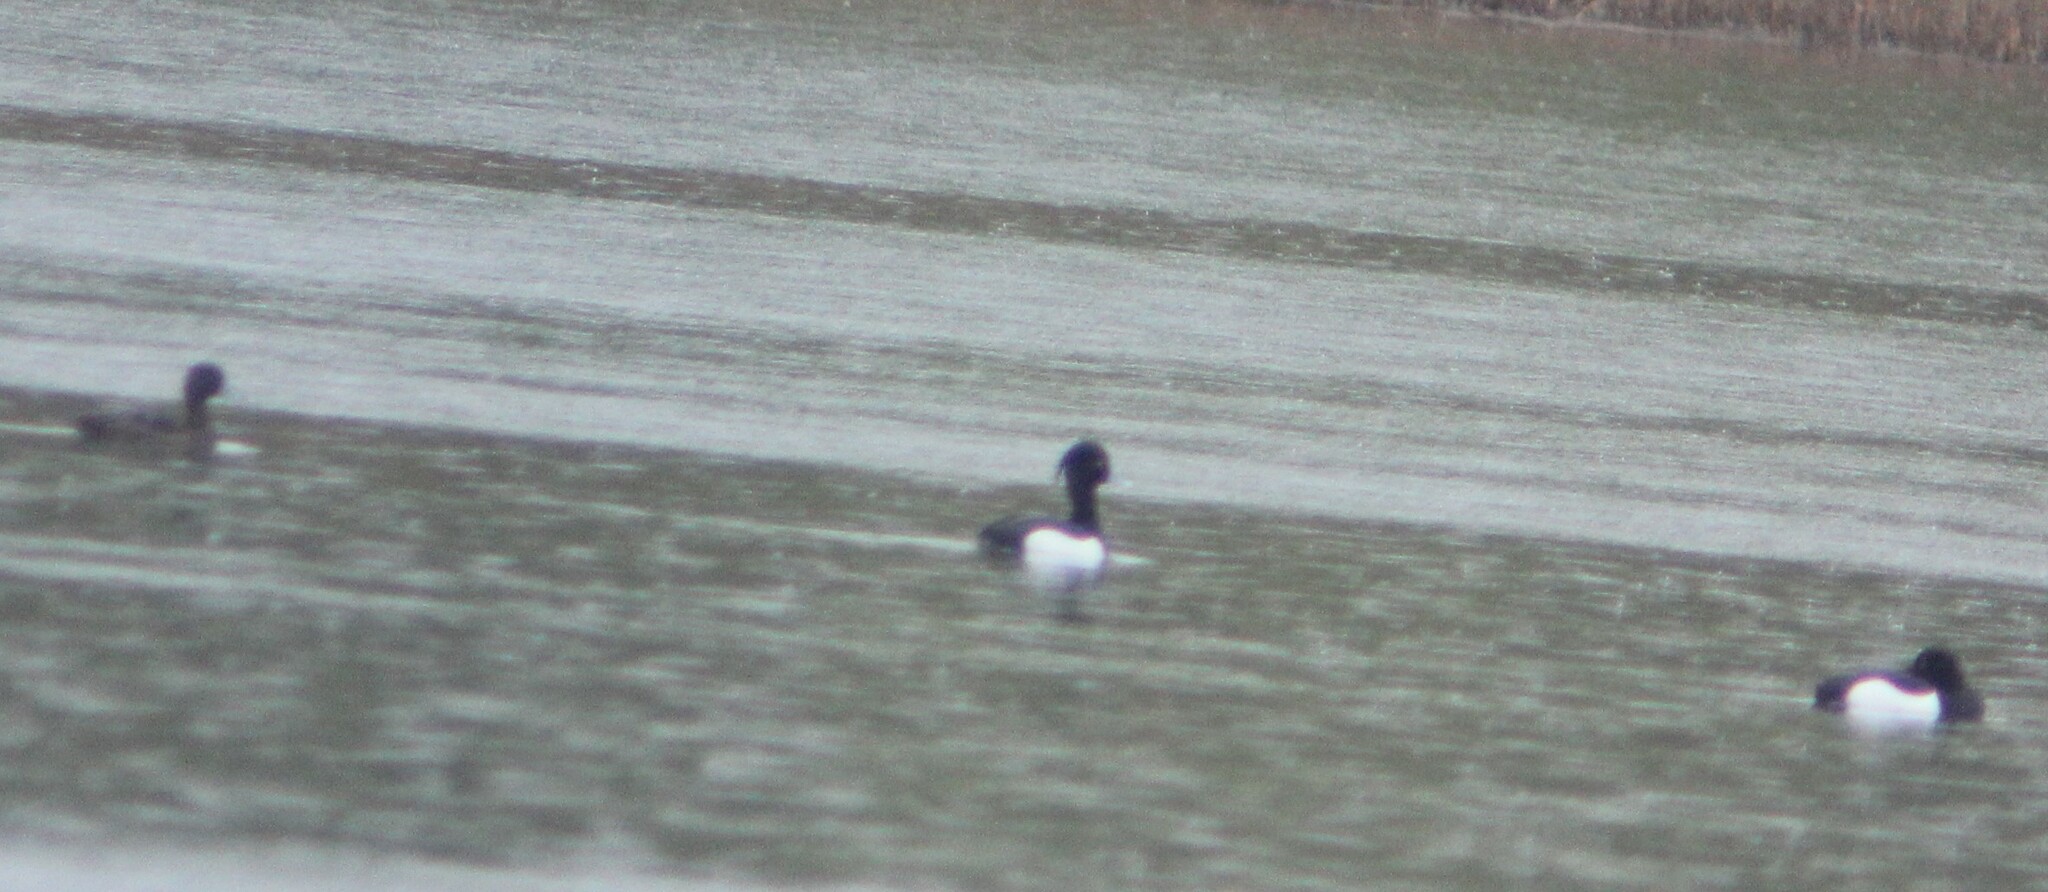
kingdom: Animalia
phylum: Chordata
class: Aves
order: Anseriformes
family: Anatidae
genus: Aythya
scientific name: Aythya fuligula
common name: Tufted duck
